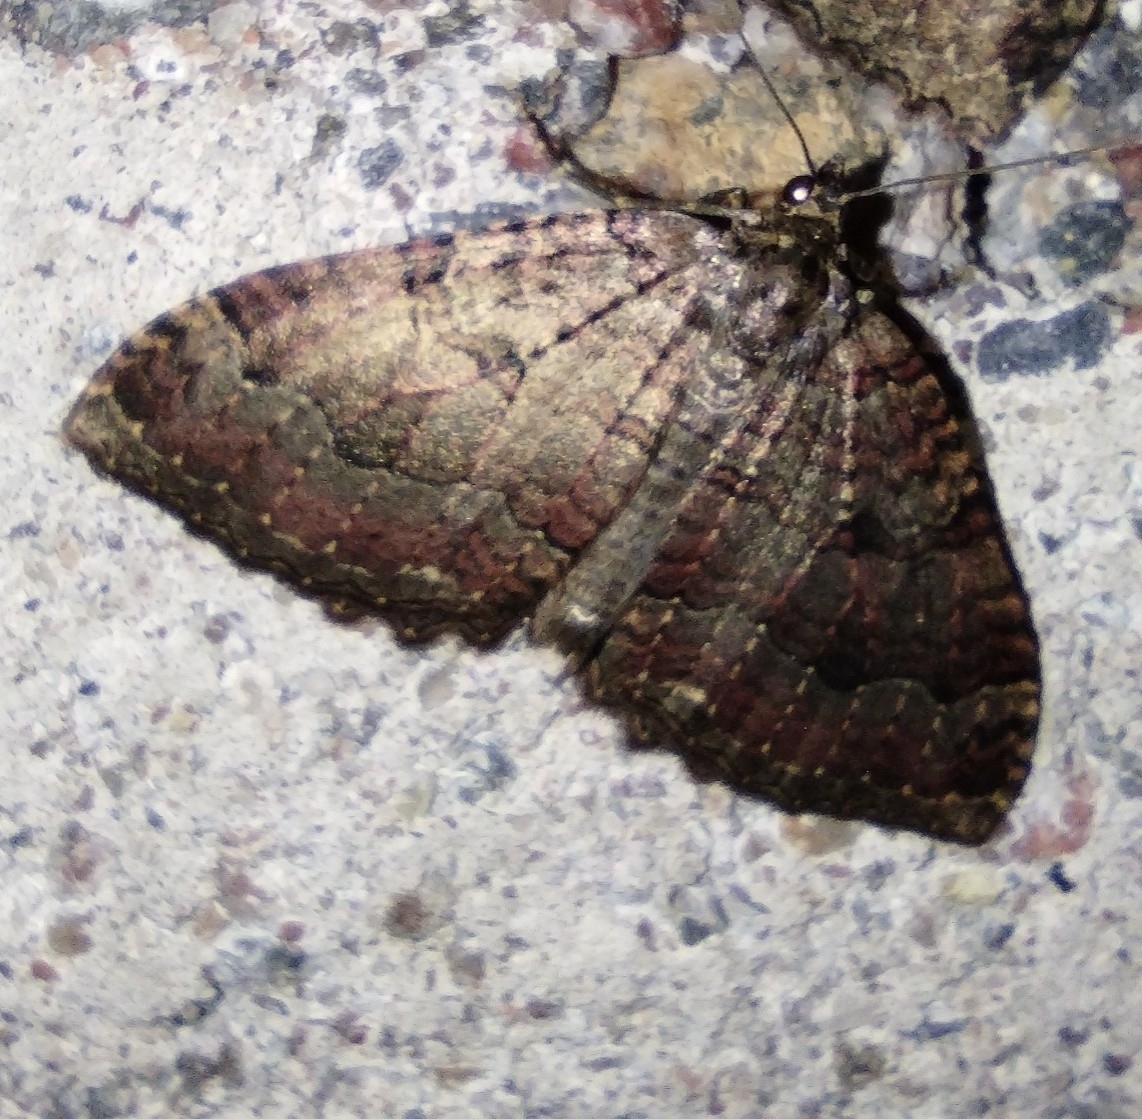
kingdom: Animalia
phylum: Arthropoda
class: Insecta
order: Lepidoptera
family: Geometridae
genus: Triphosa
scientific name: Triphosa dubitata
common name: Tissue
